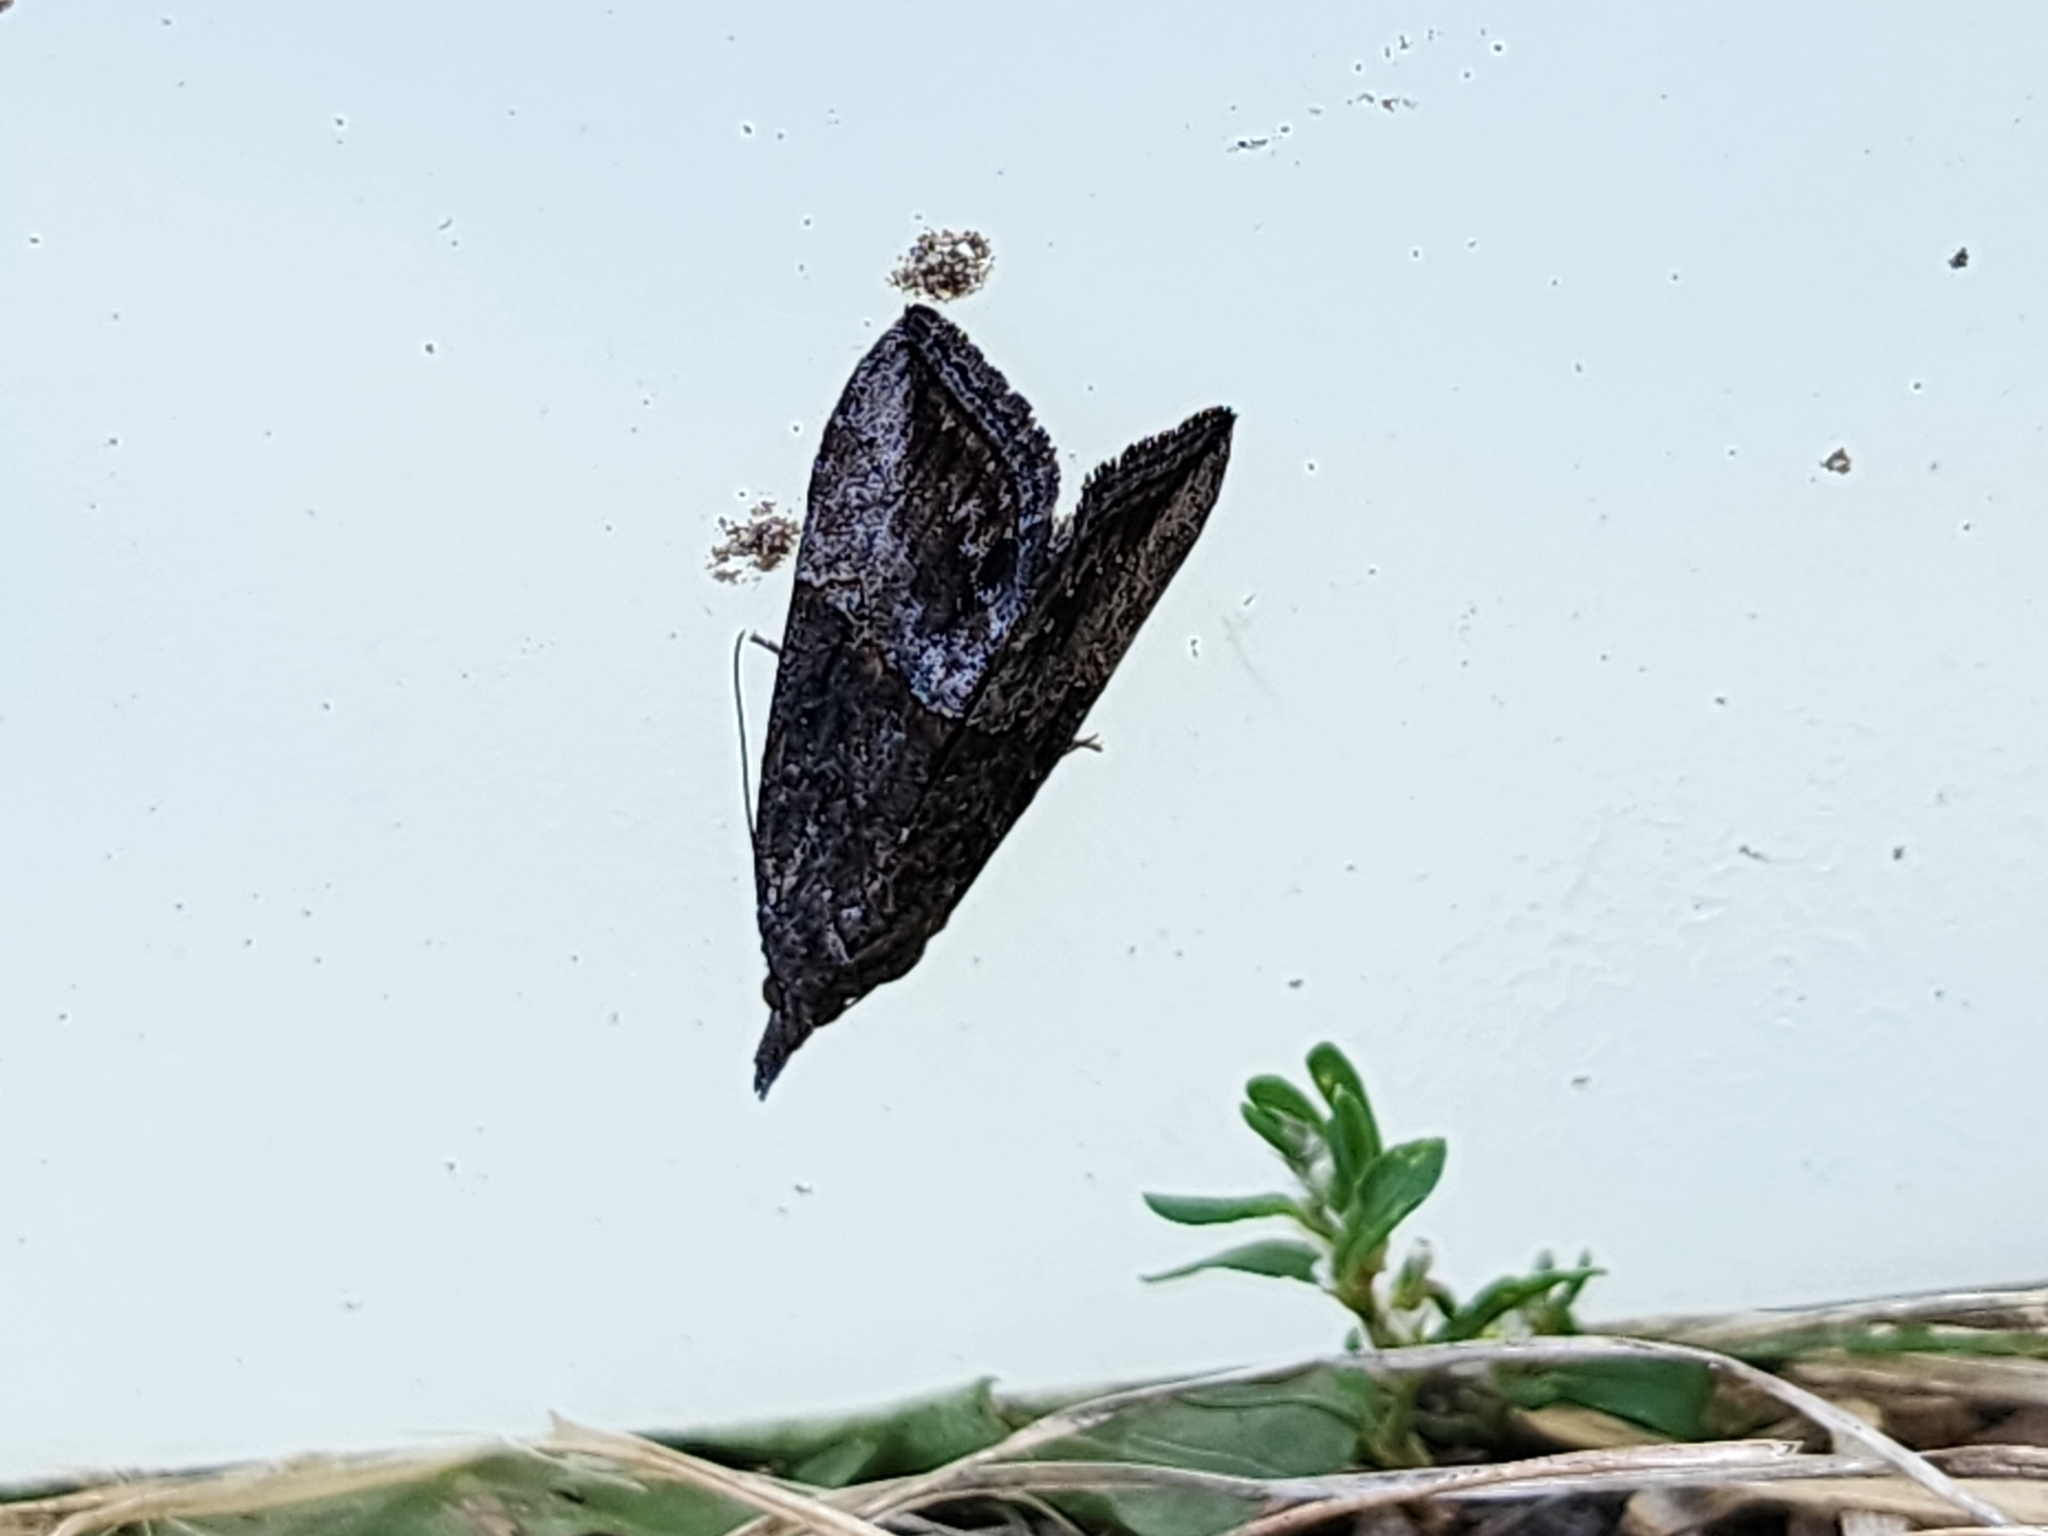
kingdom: Animalia
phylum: Arthropoda
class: Insecta
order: Lepidoptera
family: Erebidae
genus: Hypena
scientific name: Hypena scabra
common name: Green cloverworm
